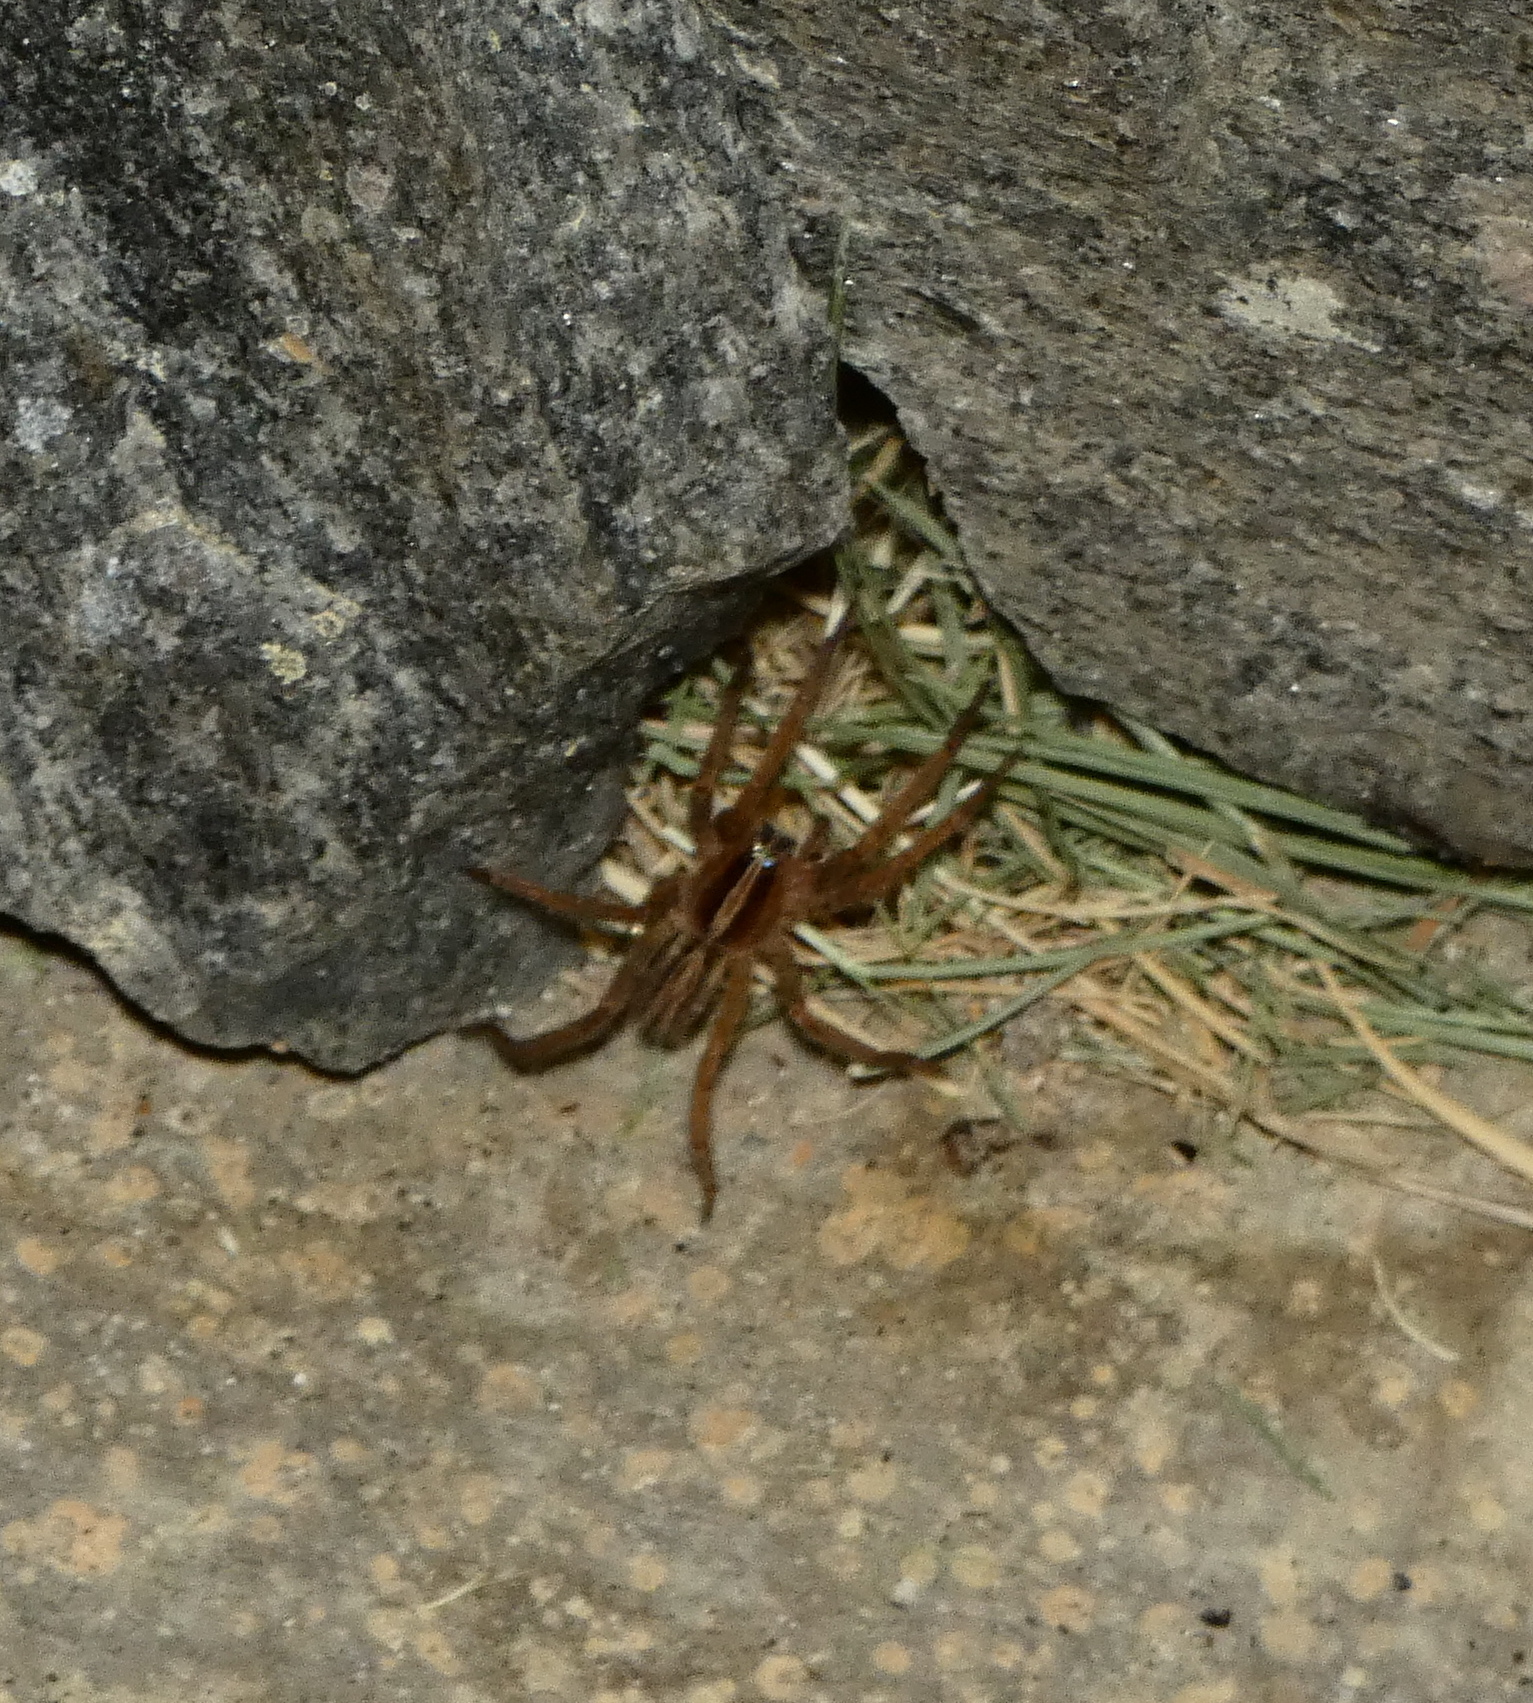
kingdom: Animalia
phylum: Arthropoda
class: Arachnida
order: Araneae
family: Ctenidae
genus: Parabatinga
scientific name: Parabatinga brevipes
